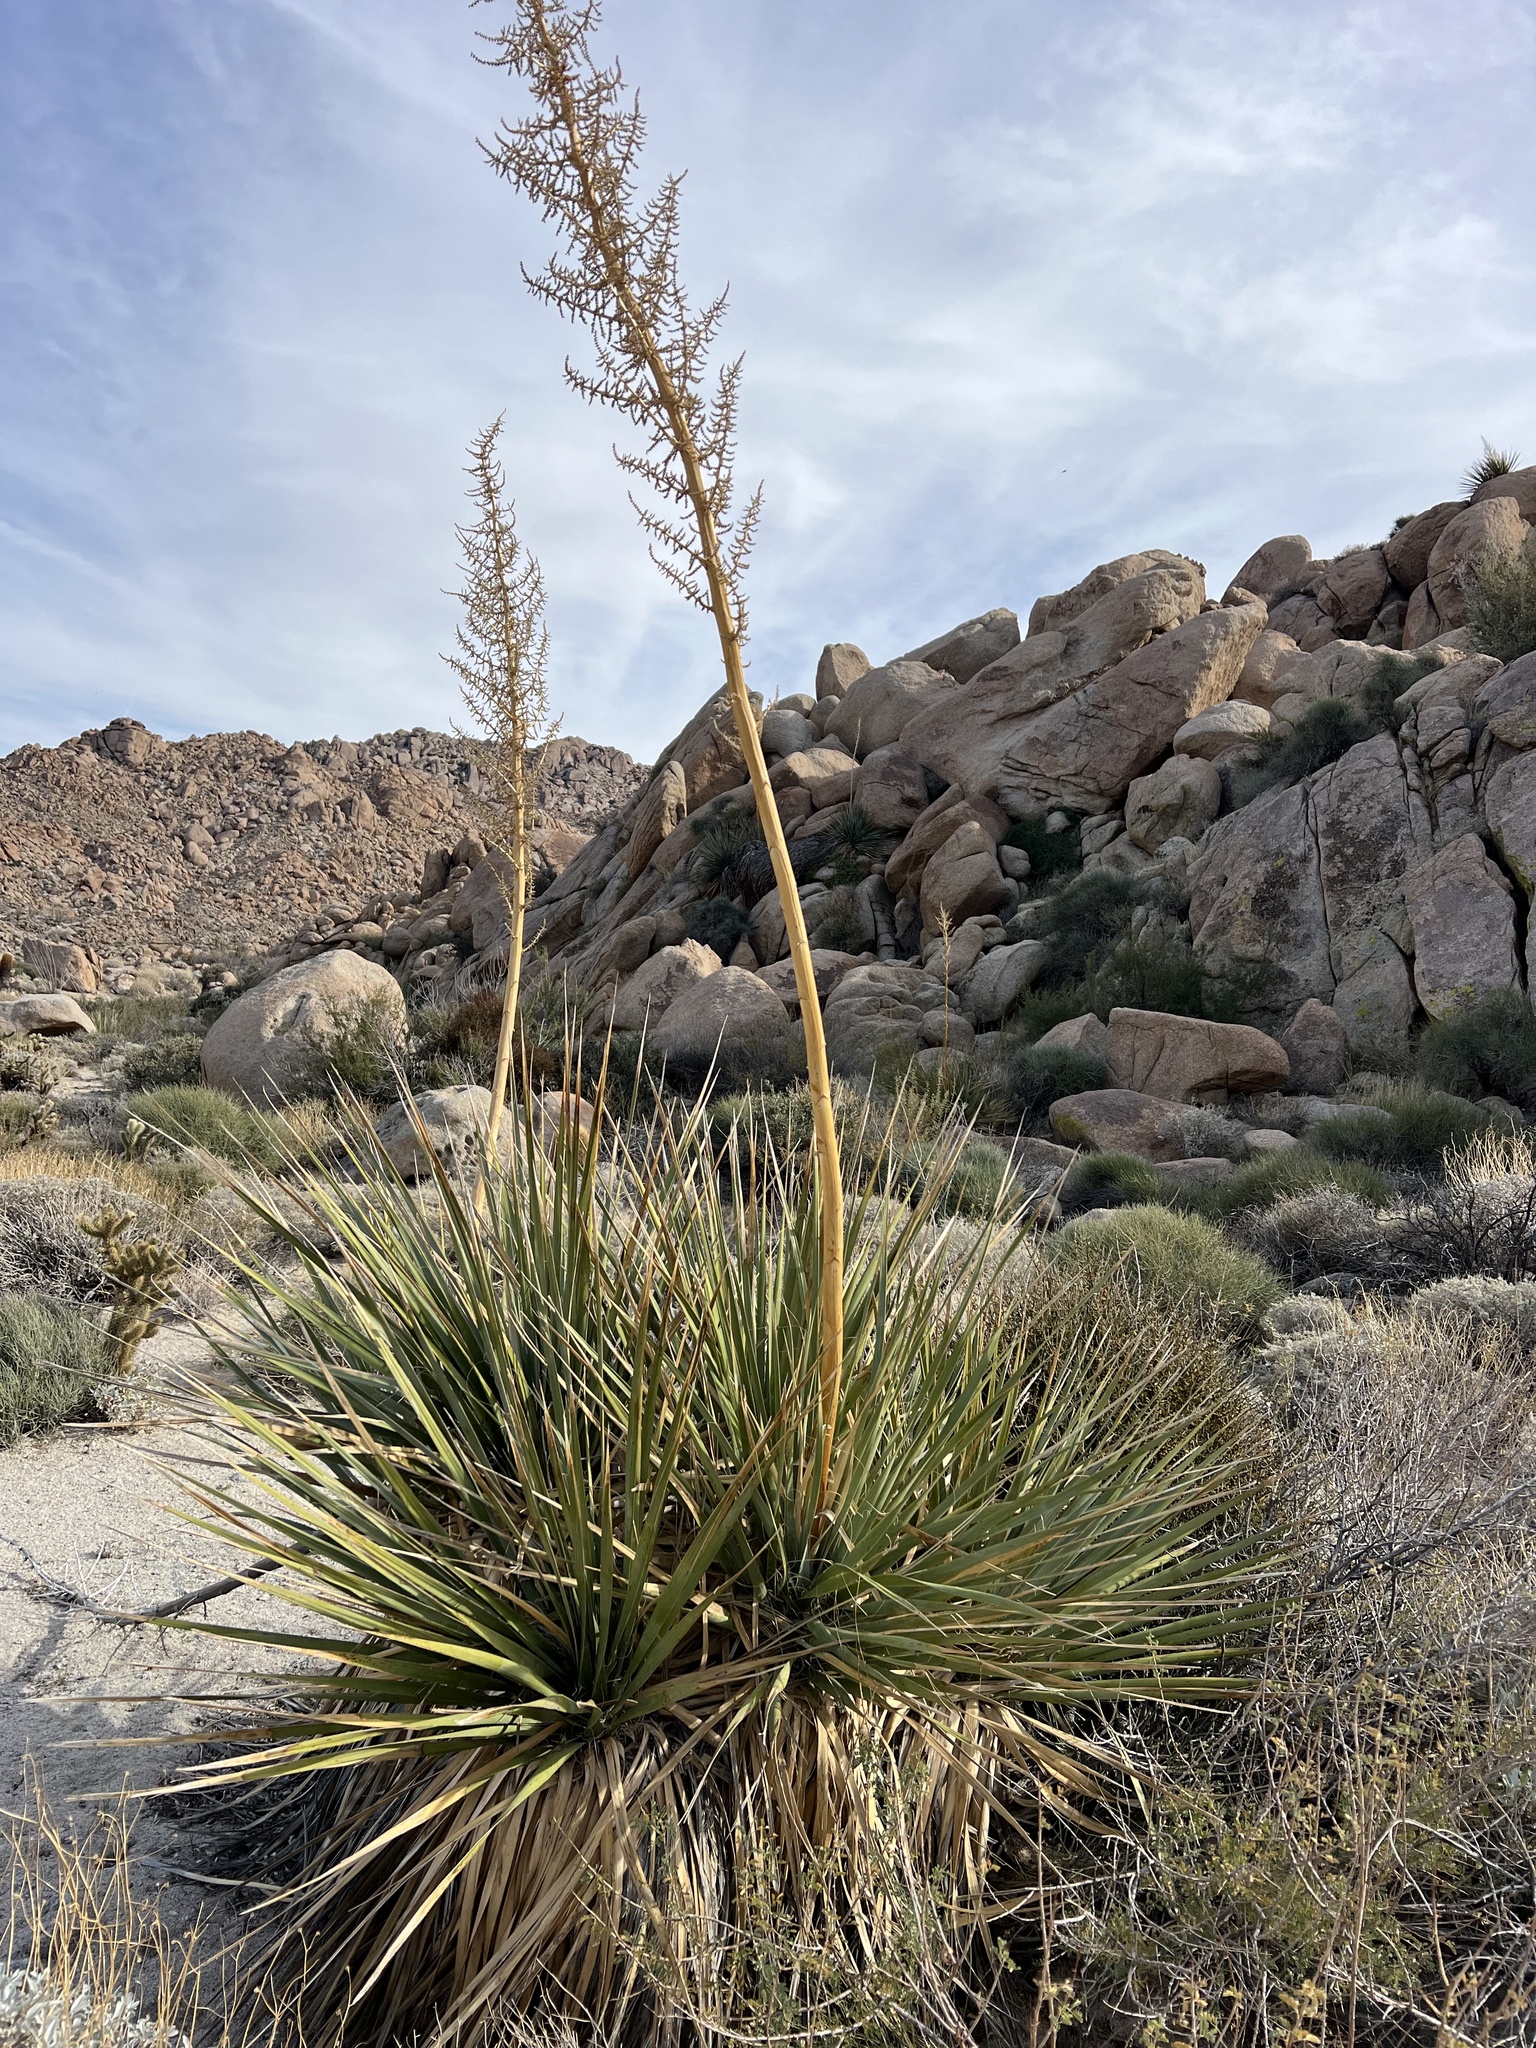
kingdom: Plantae
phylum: Tracheophyta
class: Liliopsida
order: Asparagales
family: Asparagaceae
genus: Nolina
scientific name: Nolina bigelovii
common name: Bigelow bear-grass
